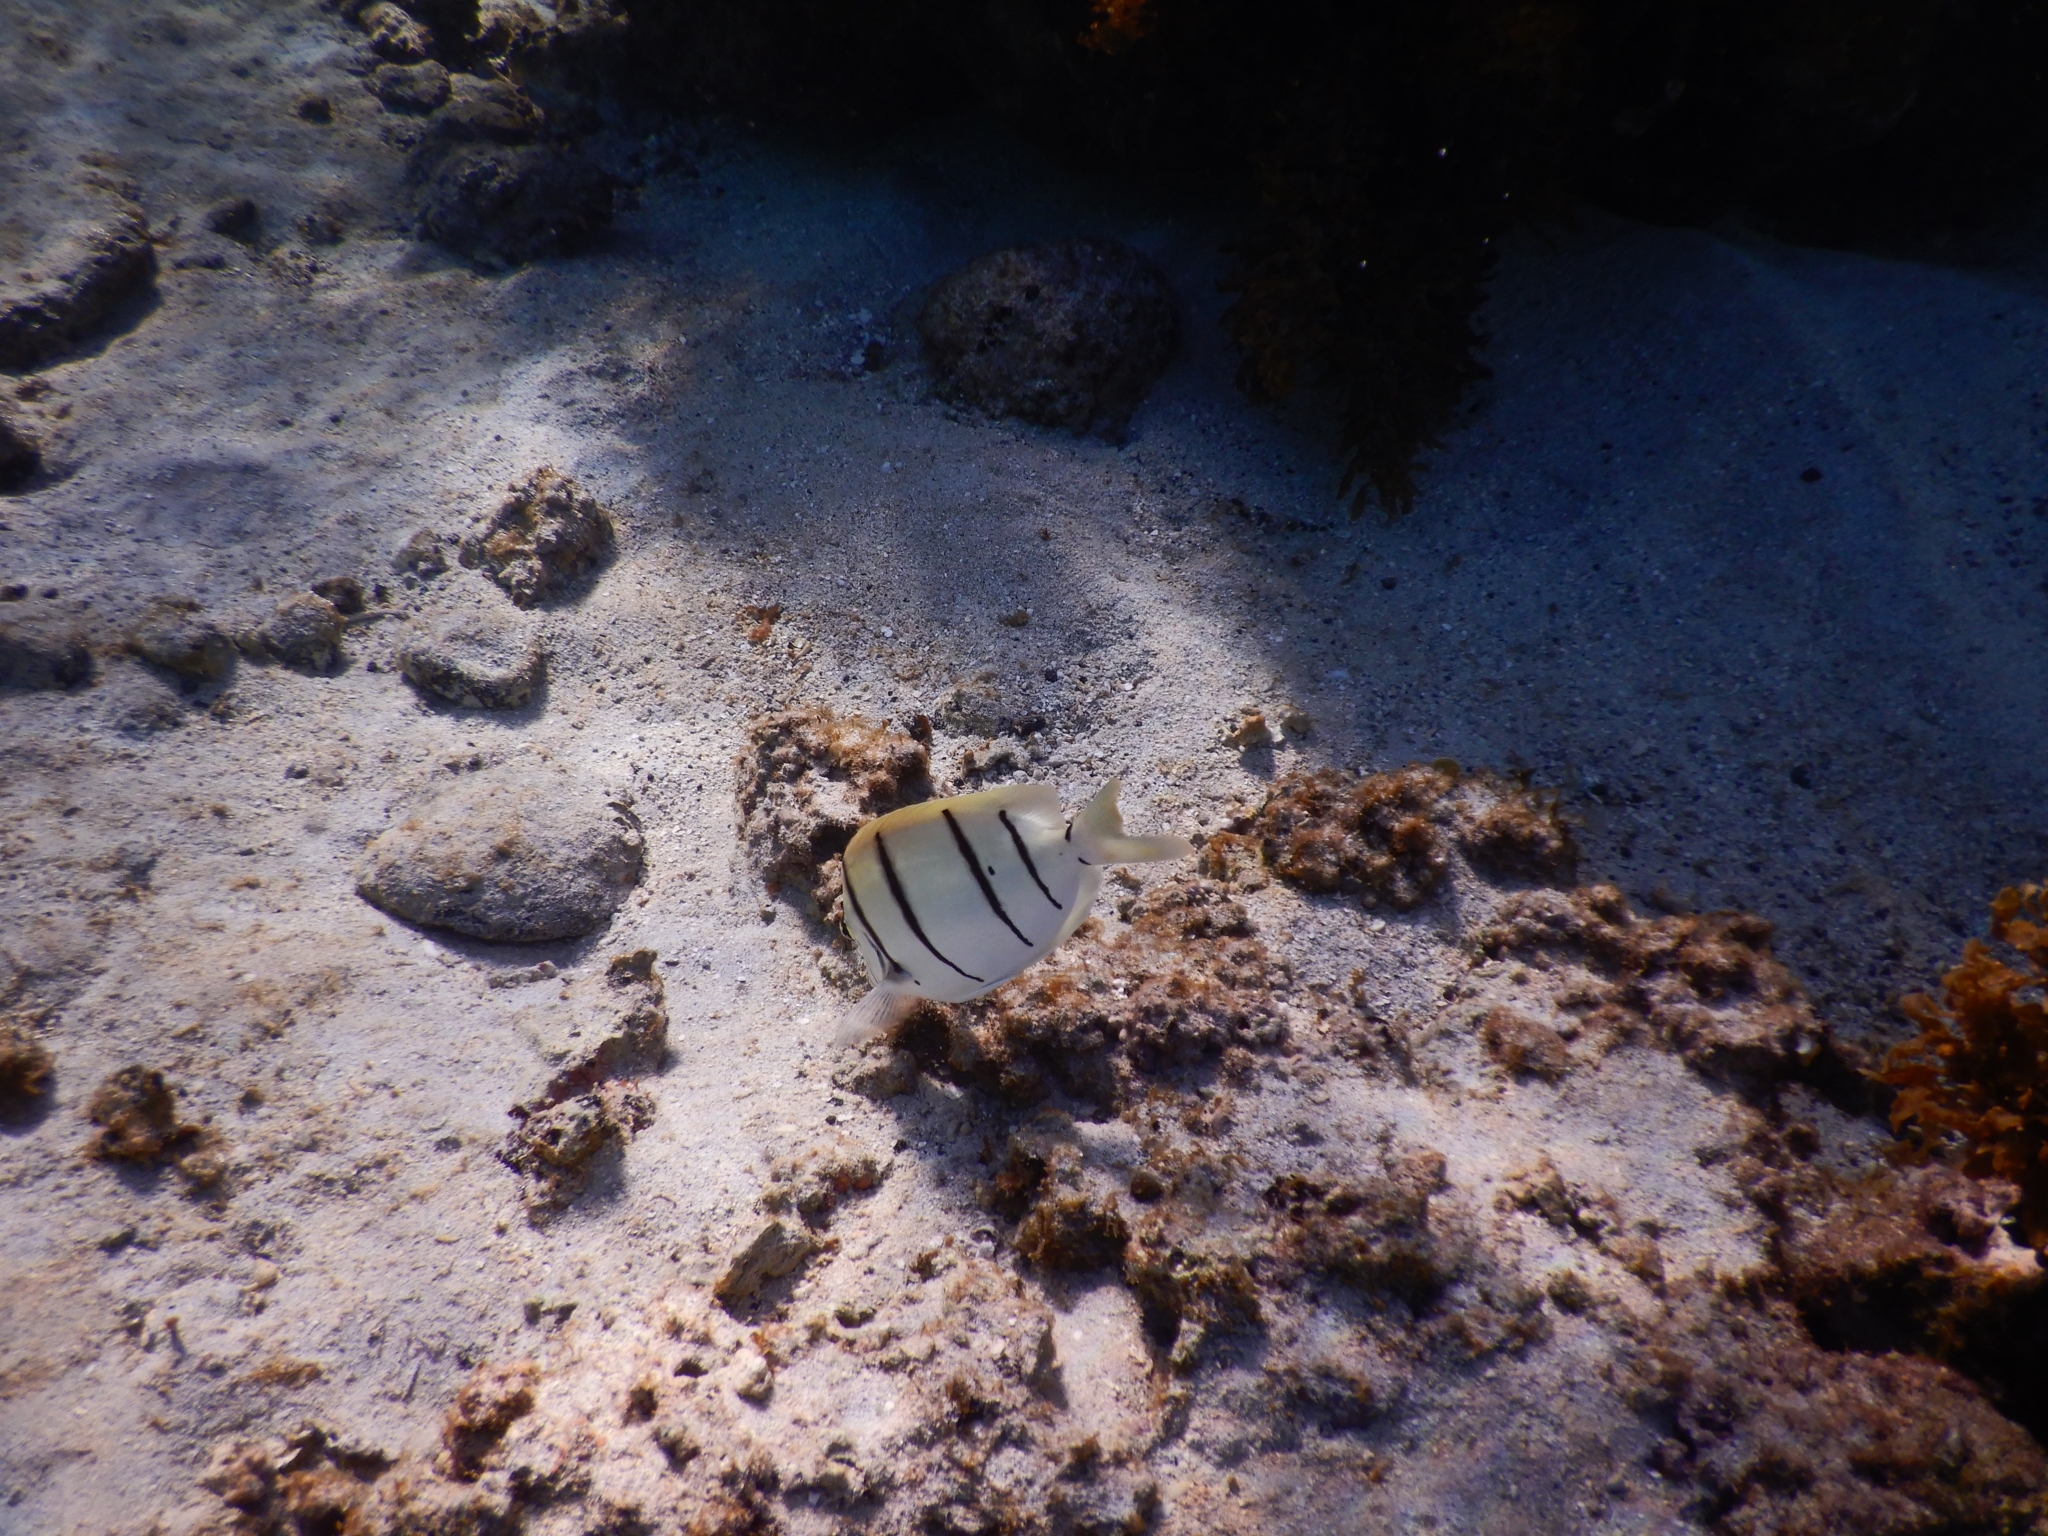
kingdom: Animalia
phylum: Chordata
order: Perciformes
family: Acanthuridae
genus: Acanthurus
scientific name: Acanthurus triostegus
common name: Convict surgeonfish
